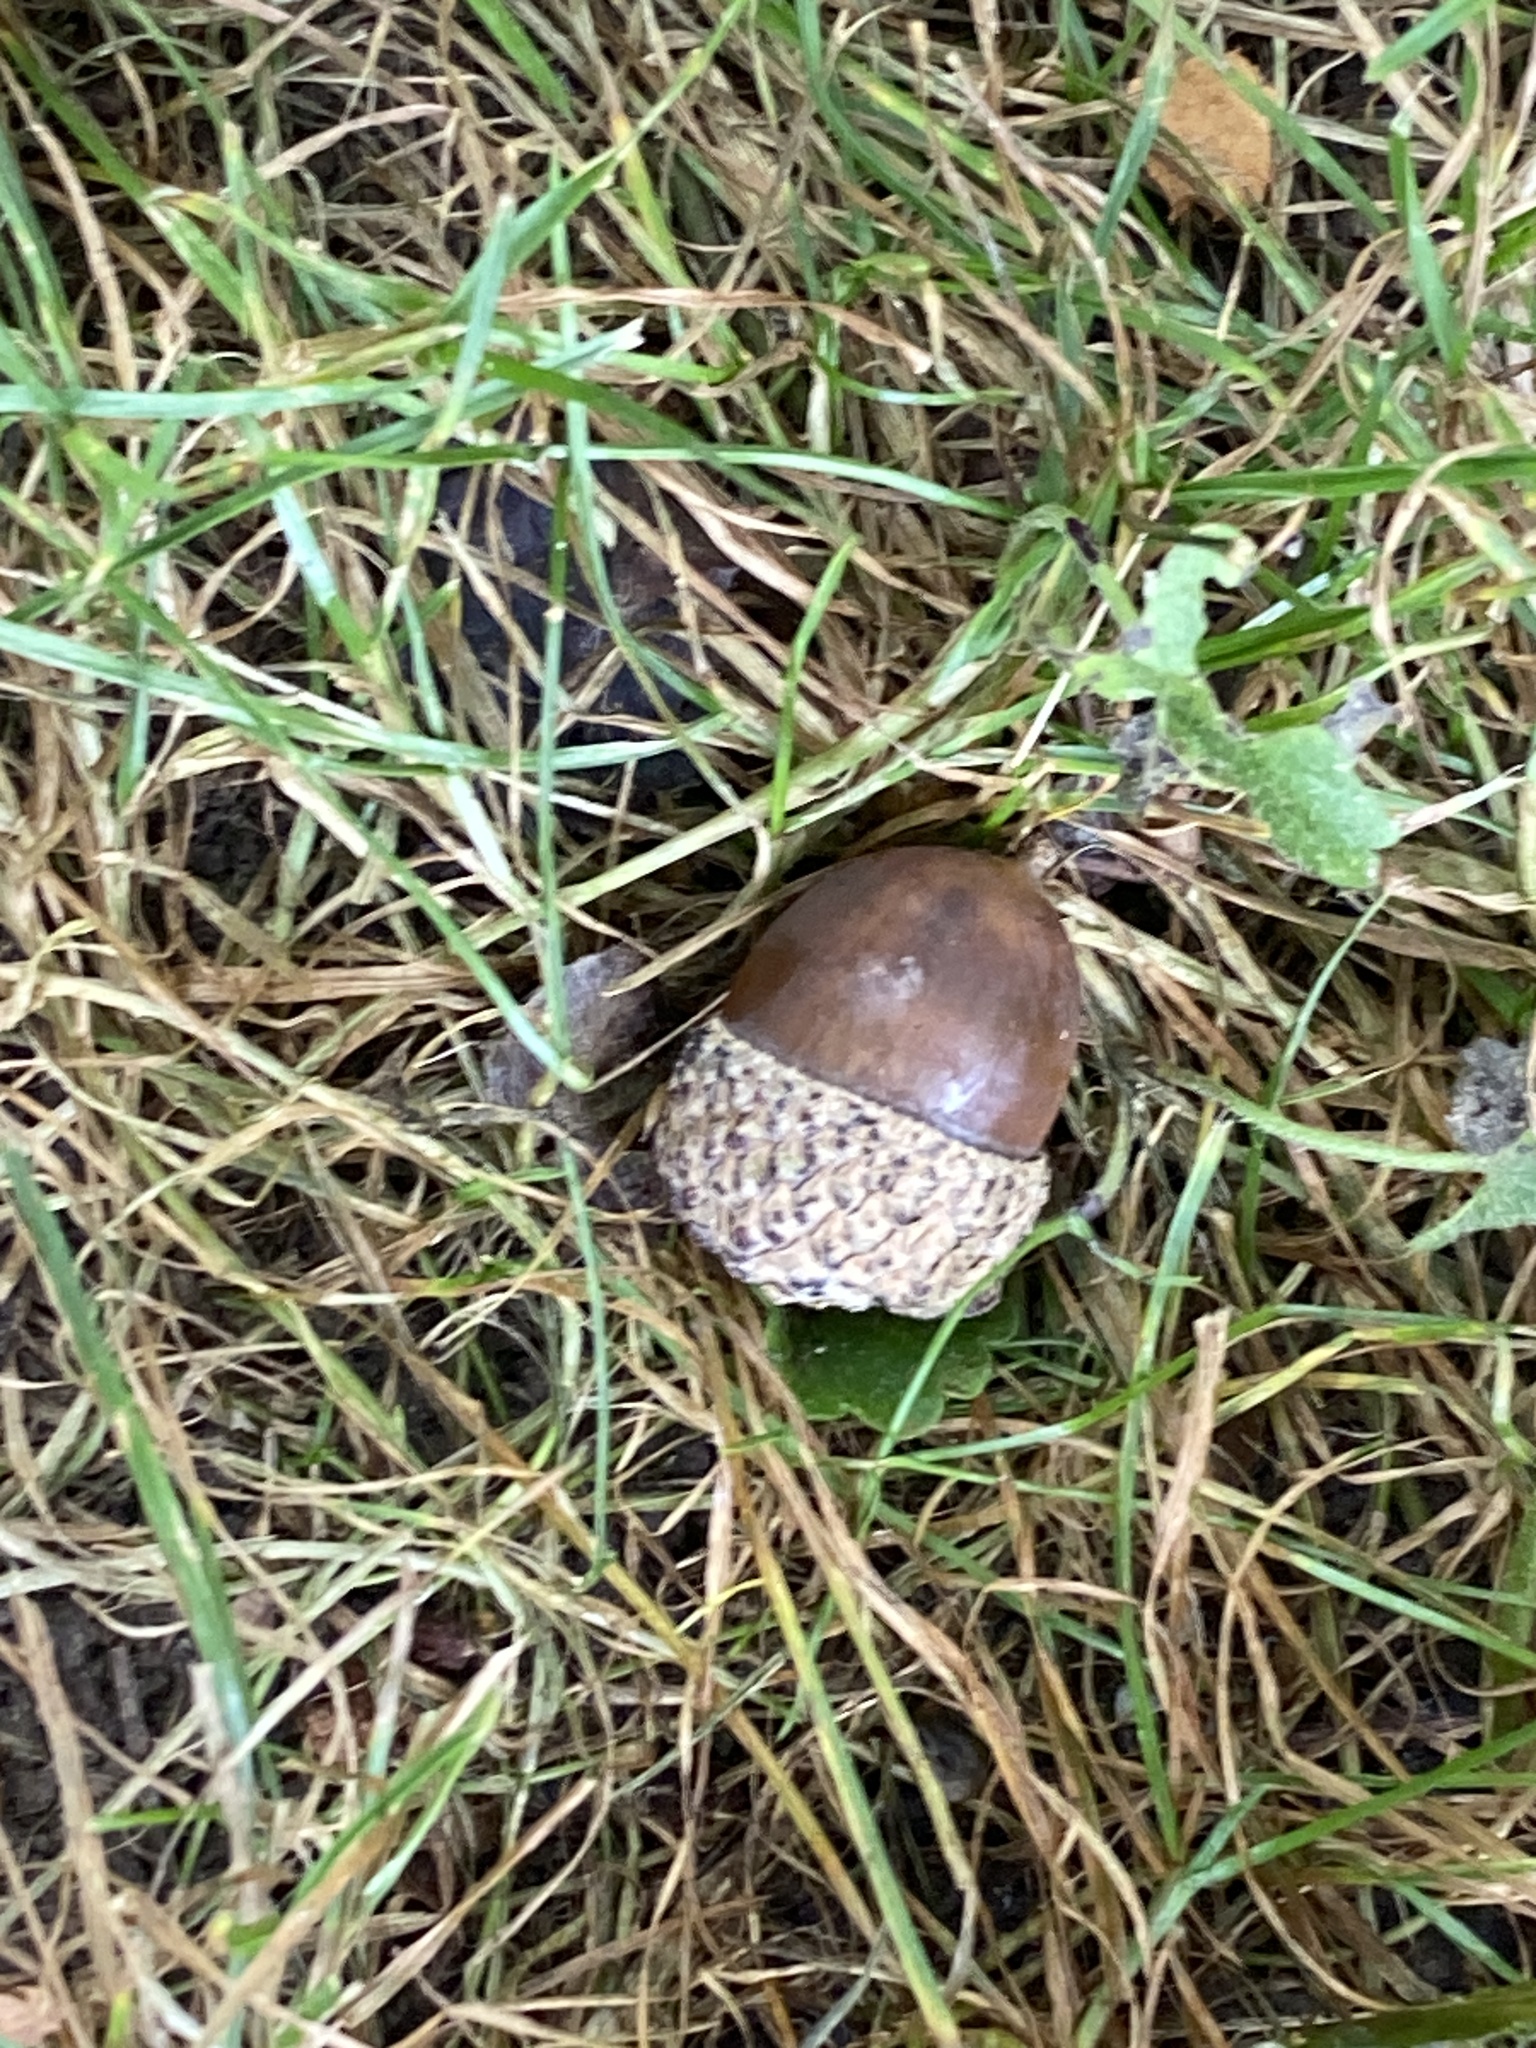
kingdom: Plantae
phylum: Tracheophyta
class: Magnoliopsida
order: Fagales
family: Fagaceae
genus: Quercus
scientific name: Quercus alba
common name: White oak
